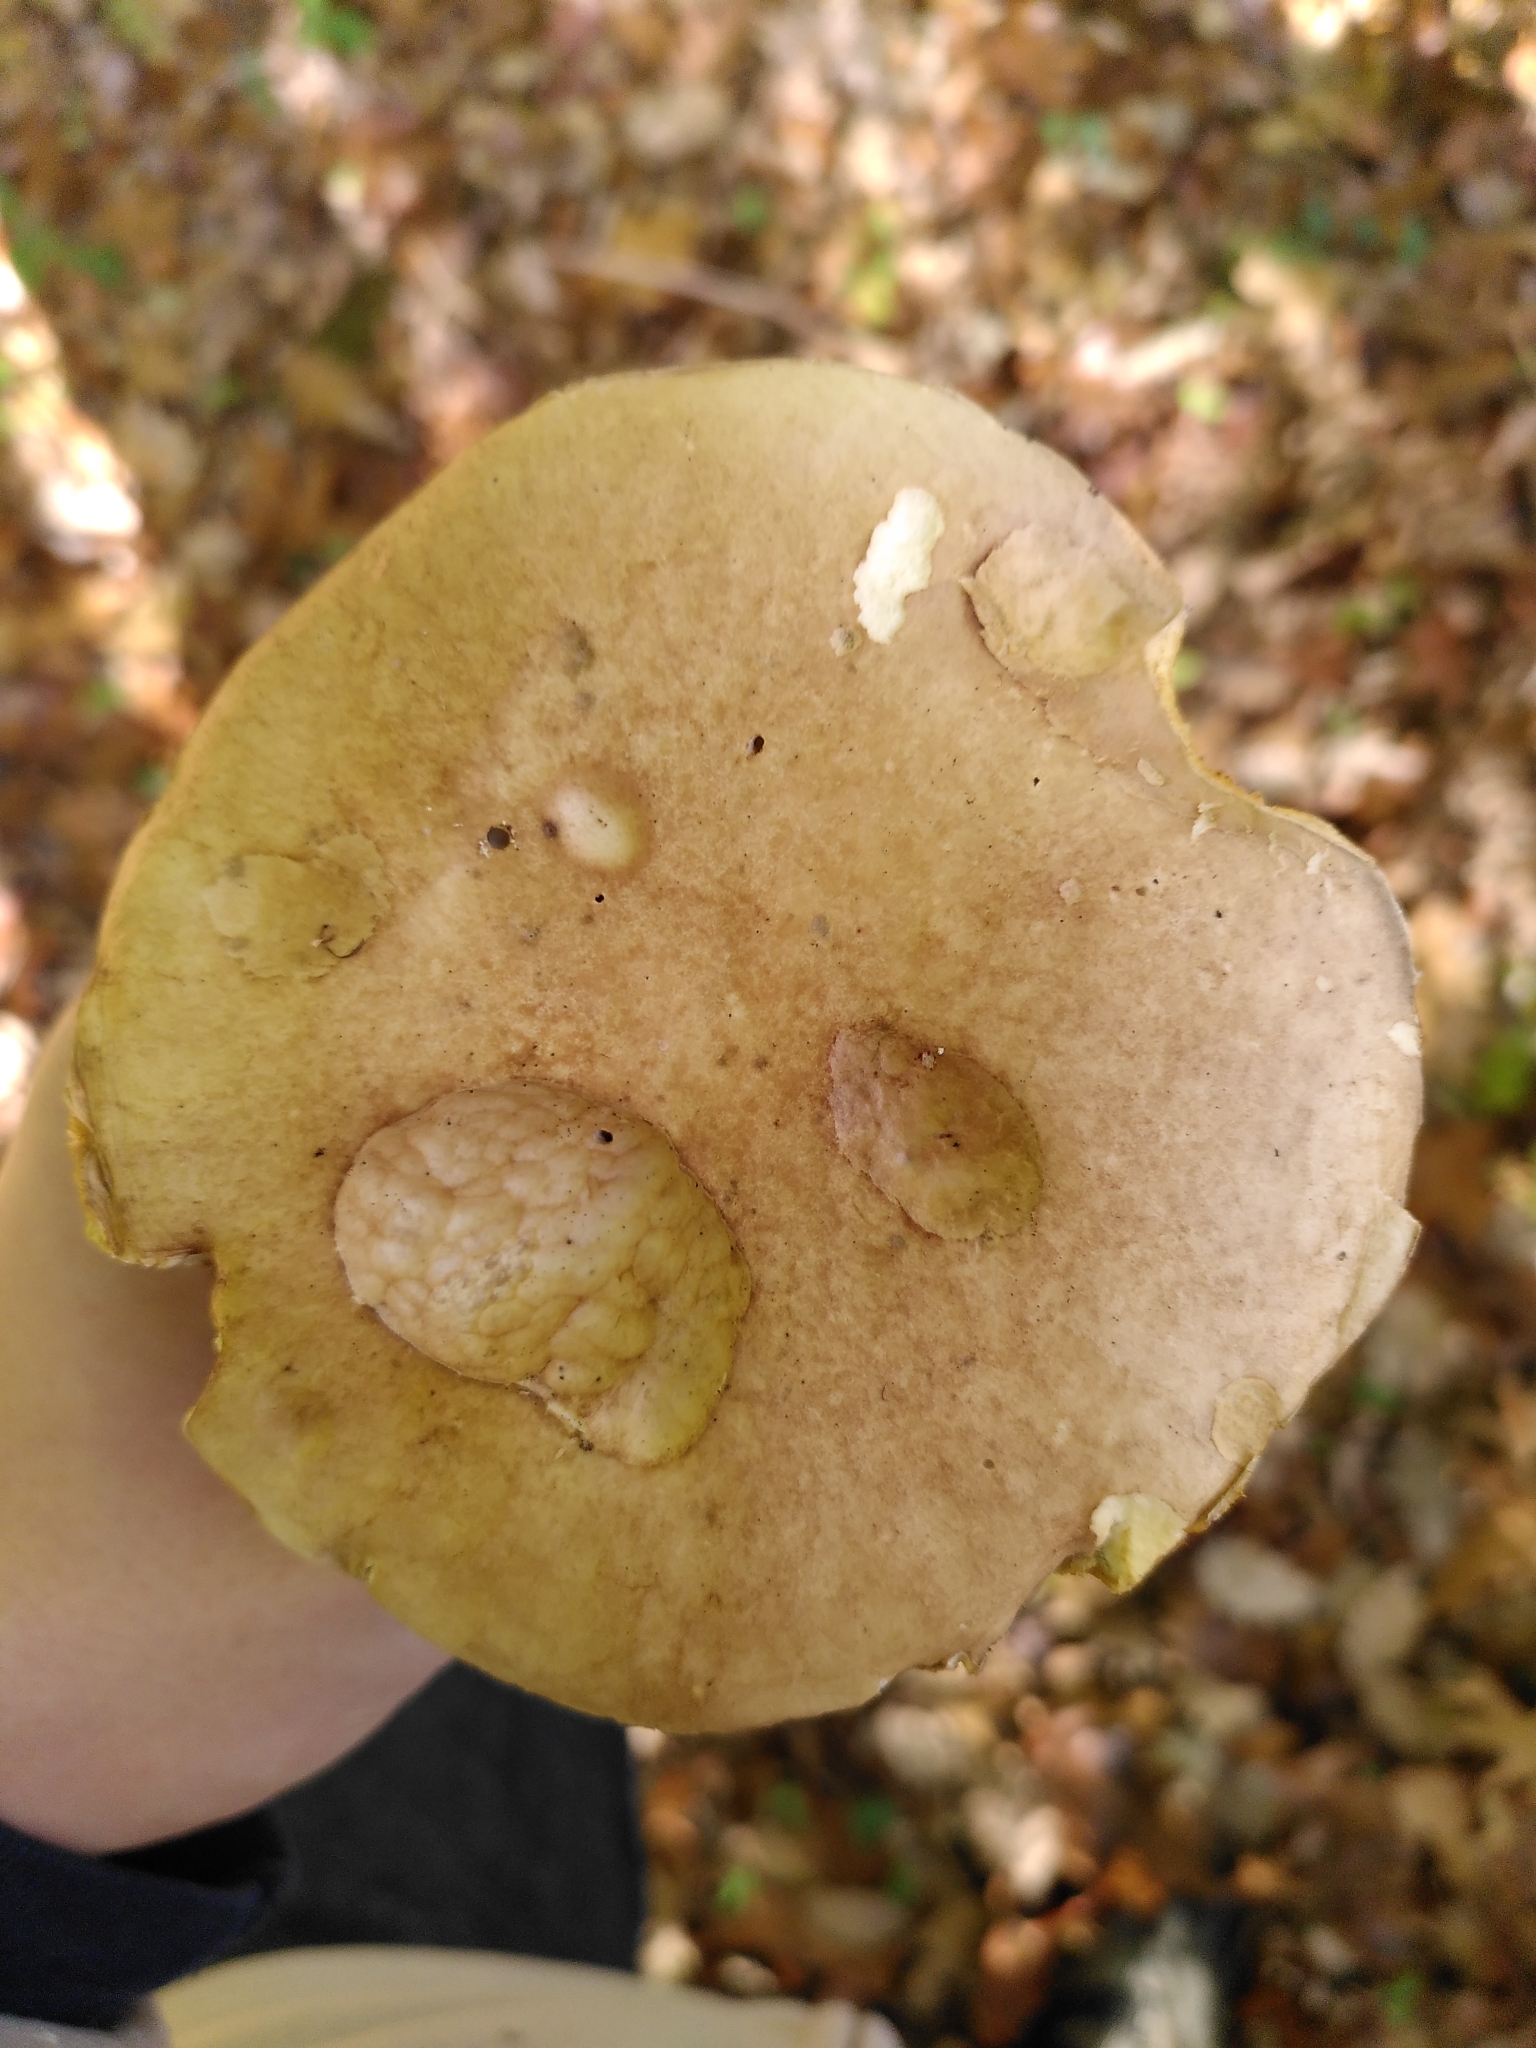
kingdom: Fungi
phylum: Basidiomycota
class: Agaricomycetes
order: Boletales
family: Boletaceae
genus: Boletus
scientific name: Boletus edulis
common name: Cep
